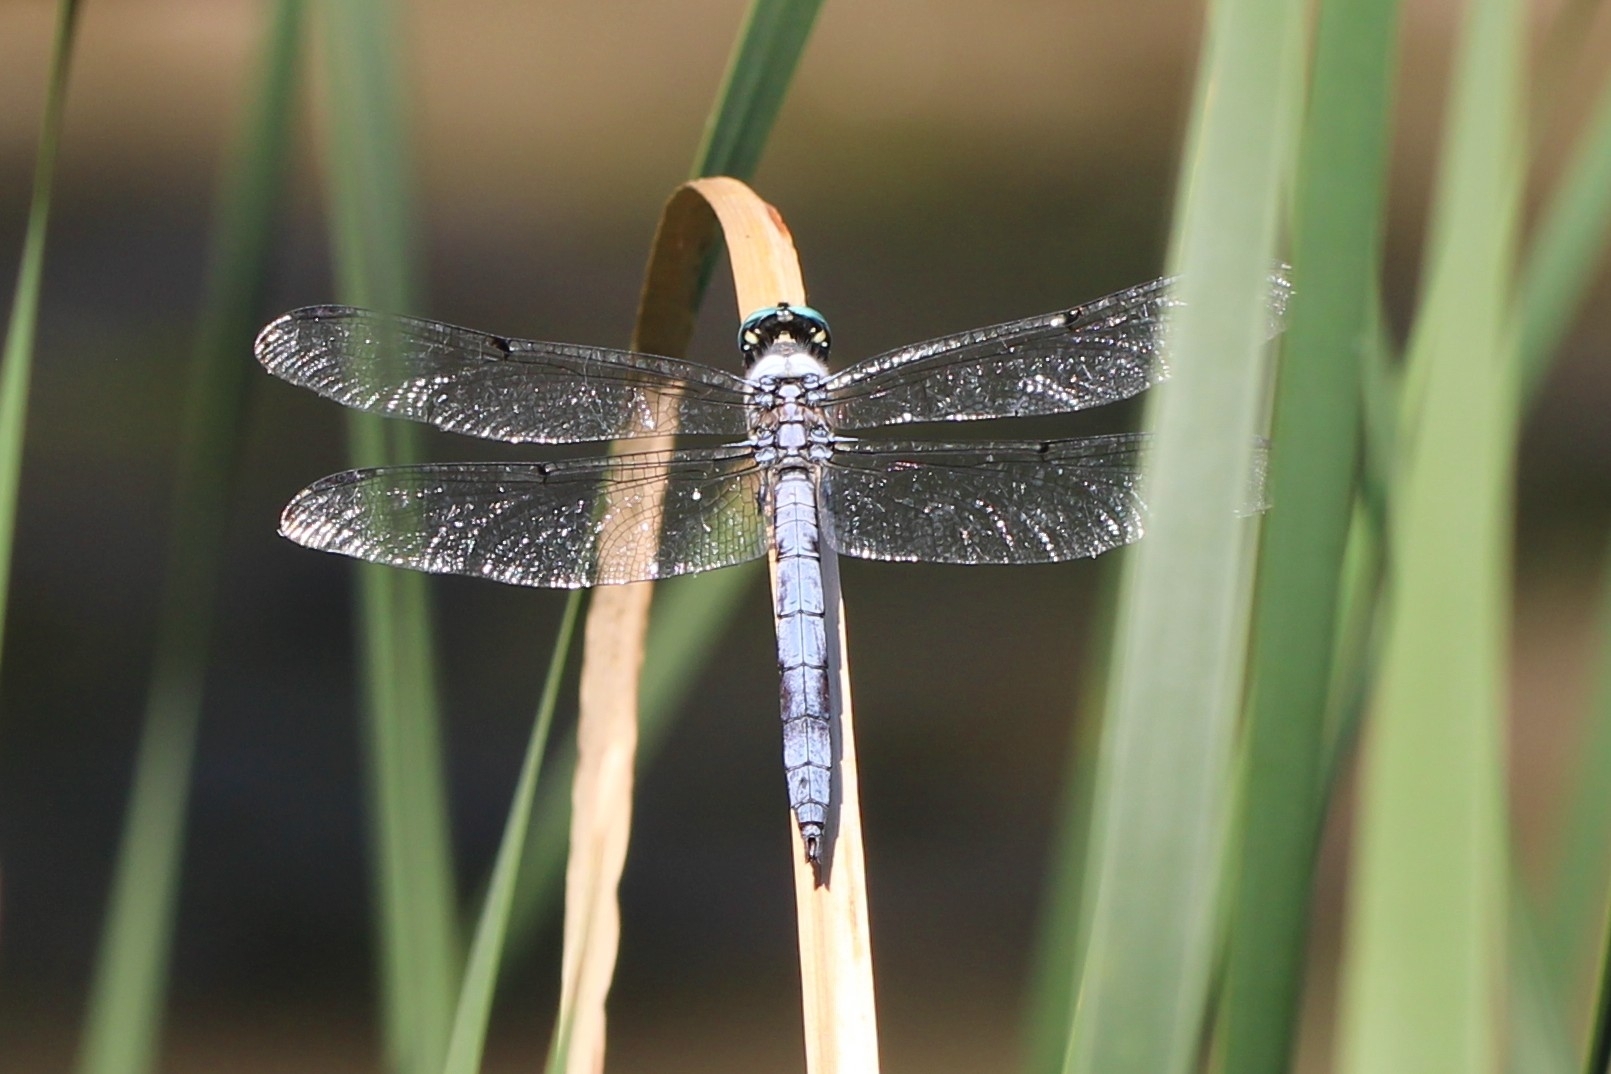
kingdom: Animalia
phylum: Arthropoda
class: Insecta
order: Odonata
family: Libellulidae
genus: Libellula
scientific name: Libellula vibrans
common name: Great blue skimmer
